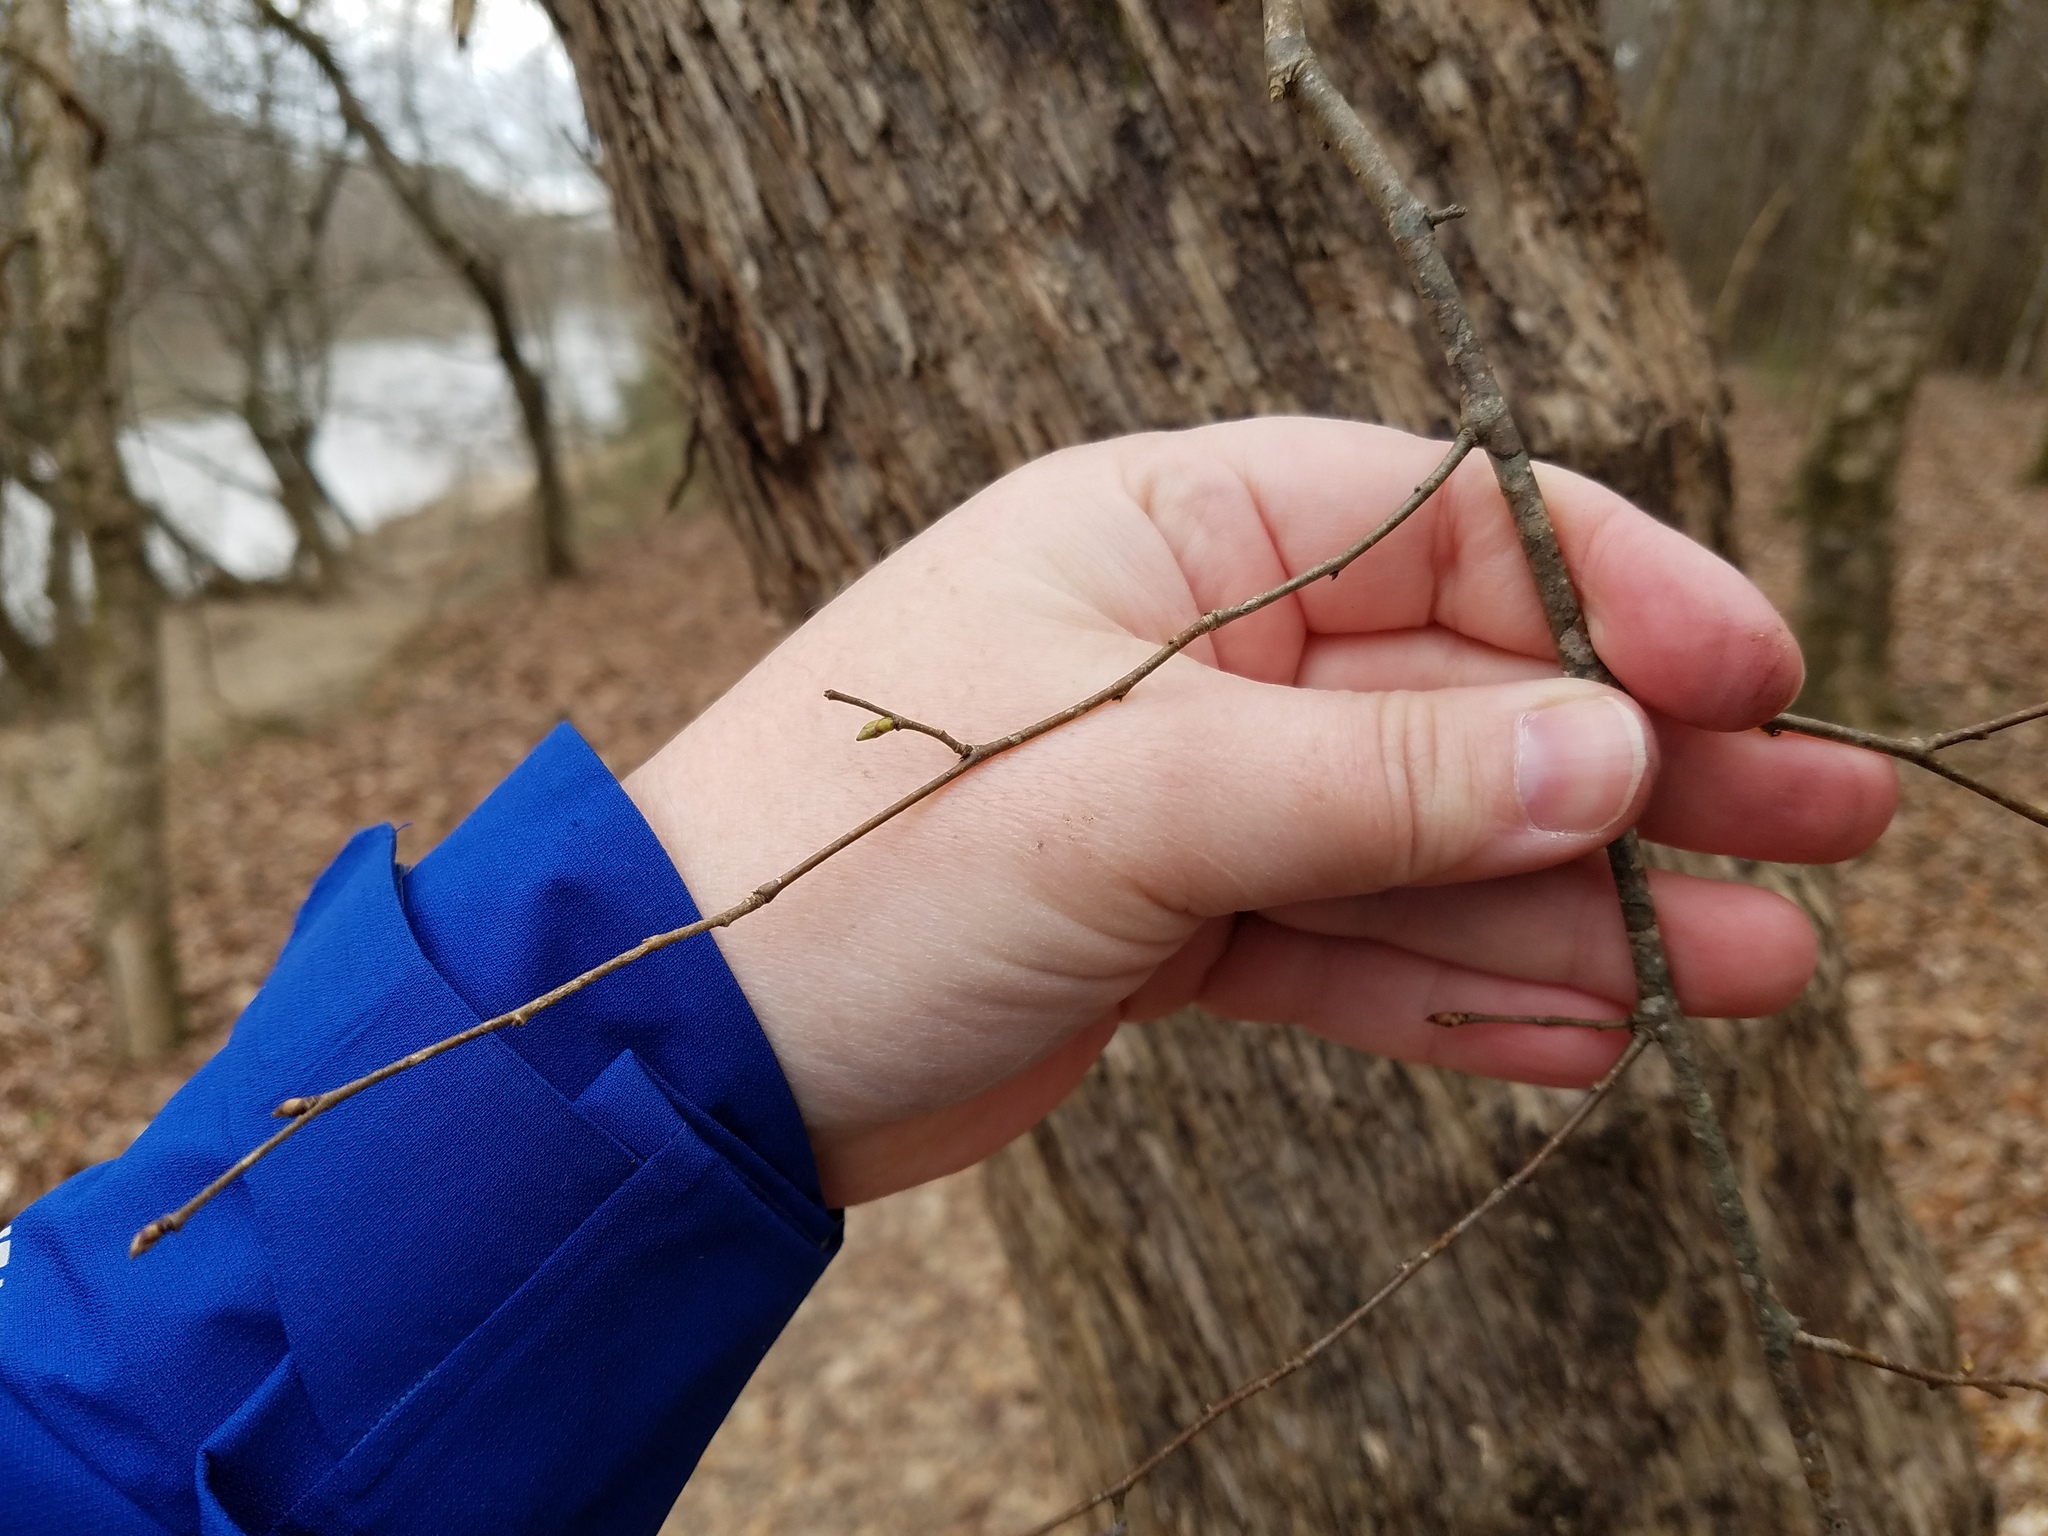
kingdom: Plantae
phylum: Tracheophyta
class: Magnoliopsida
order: Fagales
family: Betulaceae
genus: Ostrya
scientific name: Ostrya virginiana
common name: Ironwood
